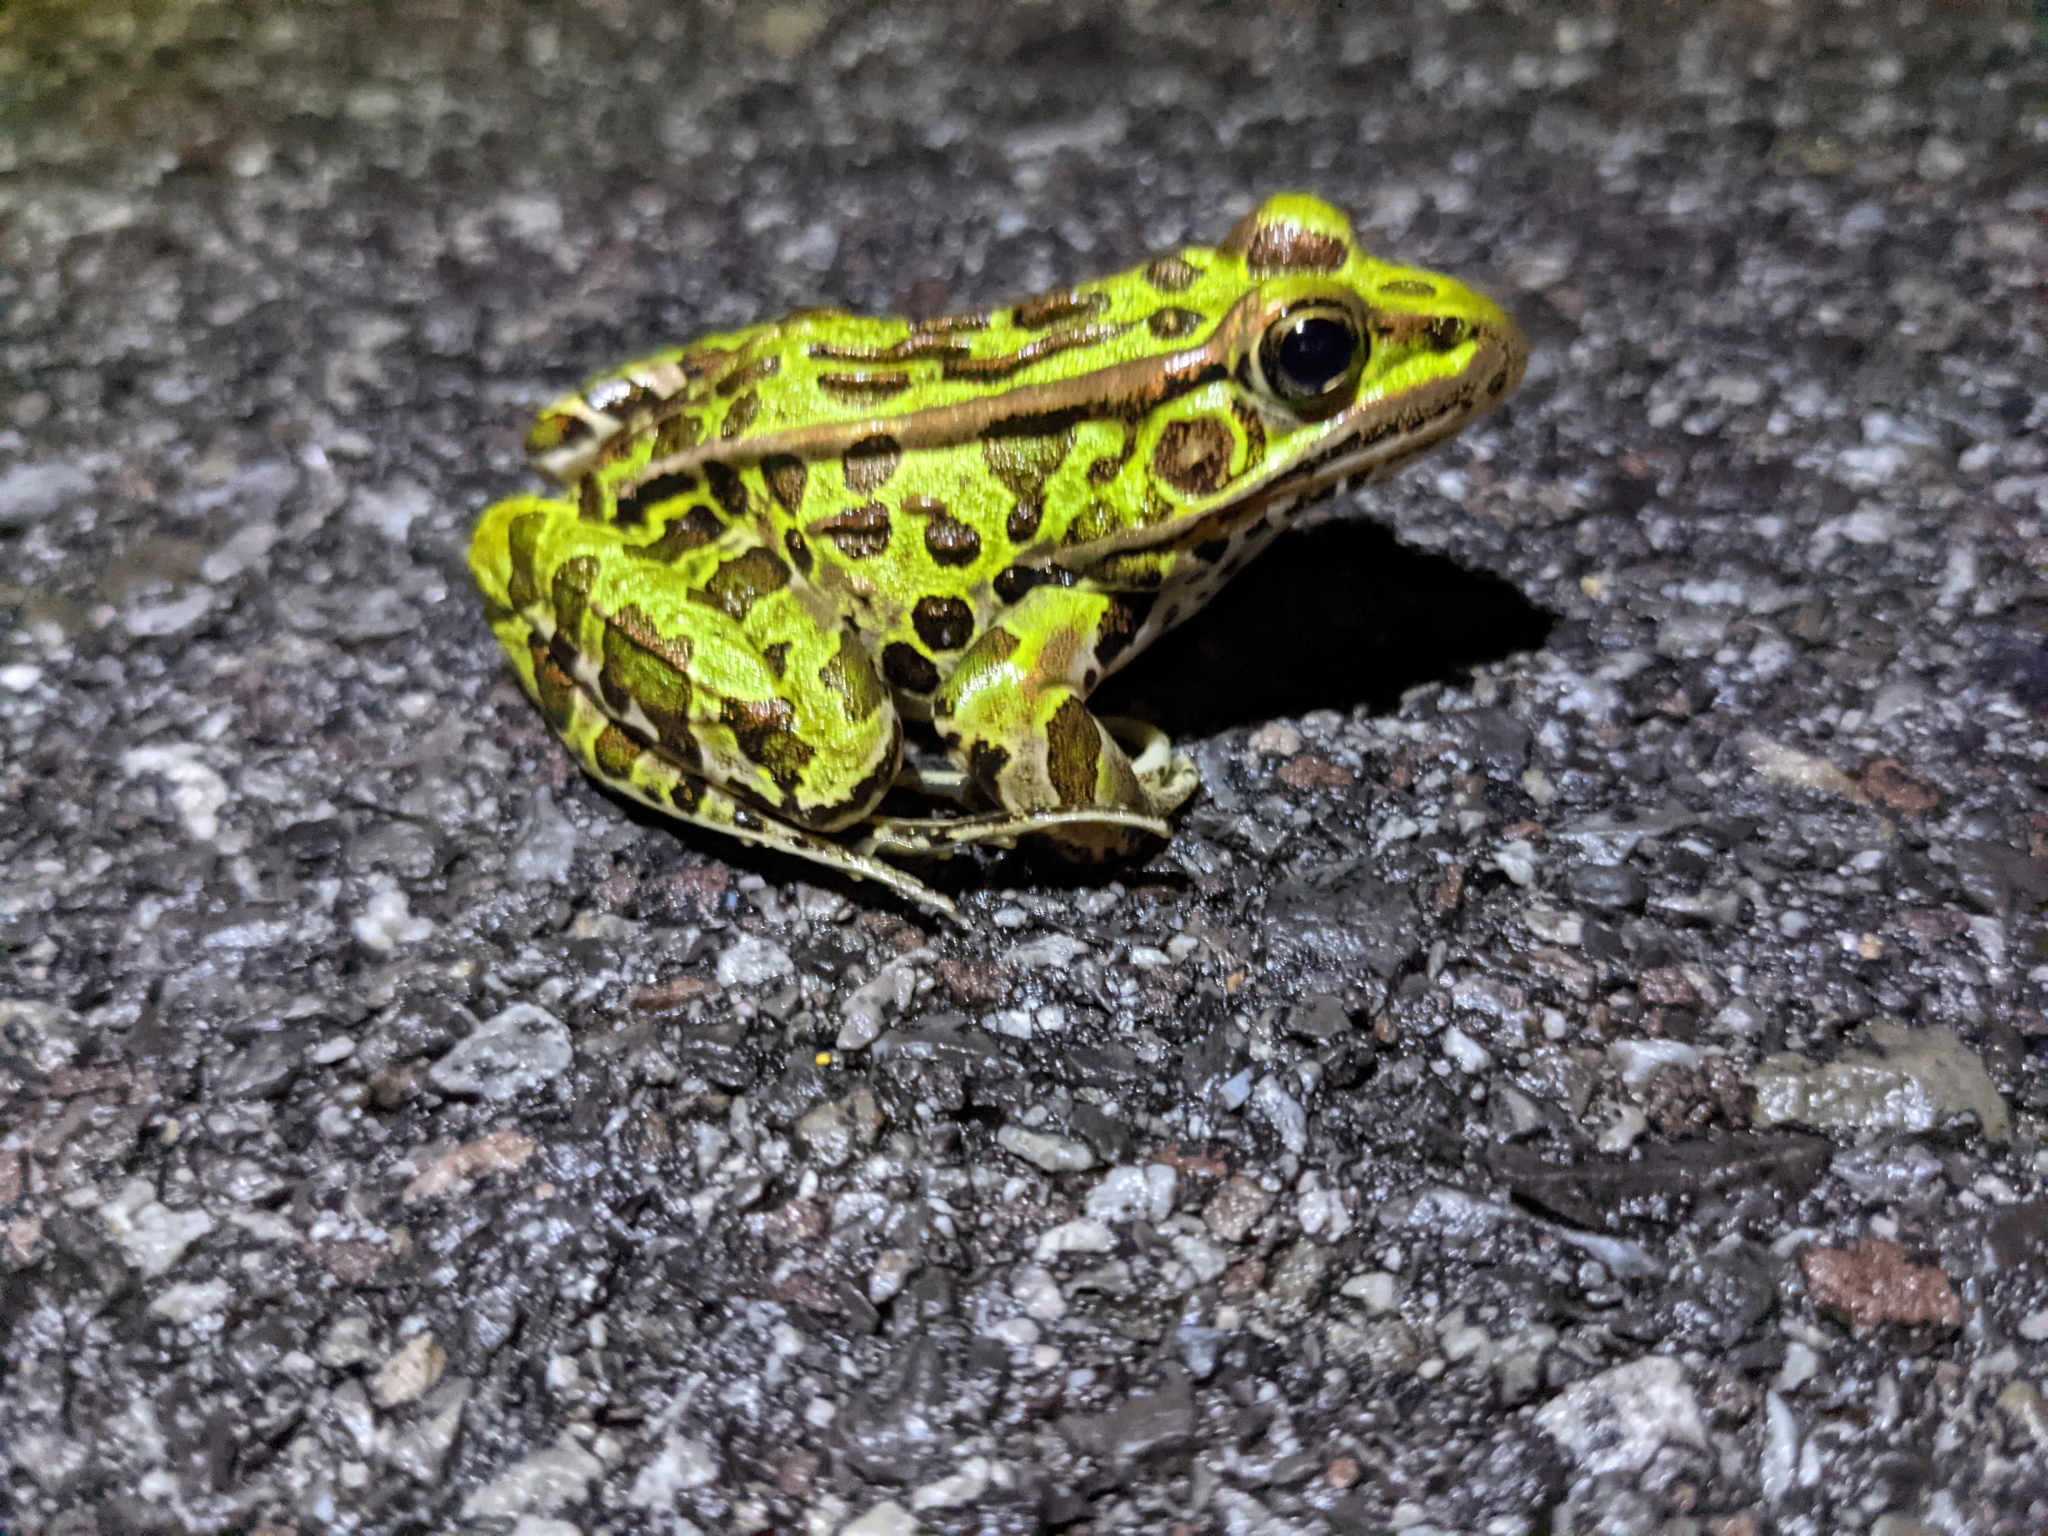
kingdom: Animalia
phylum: Chordata
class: Amphibia
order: Anura
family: Ranidae
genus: Lithobates
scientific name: Lithobates pipiens
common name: Northern leopard frog
